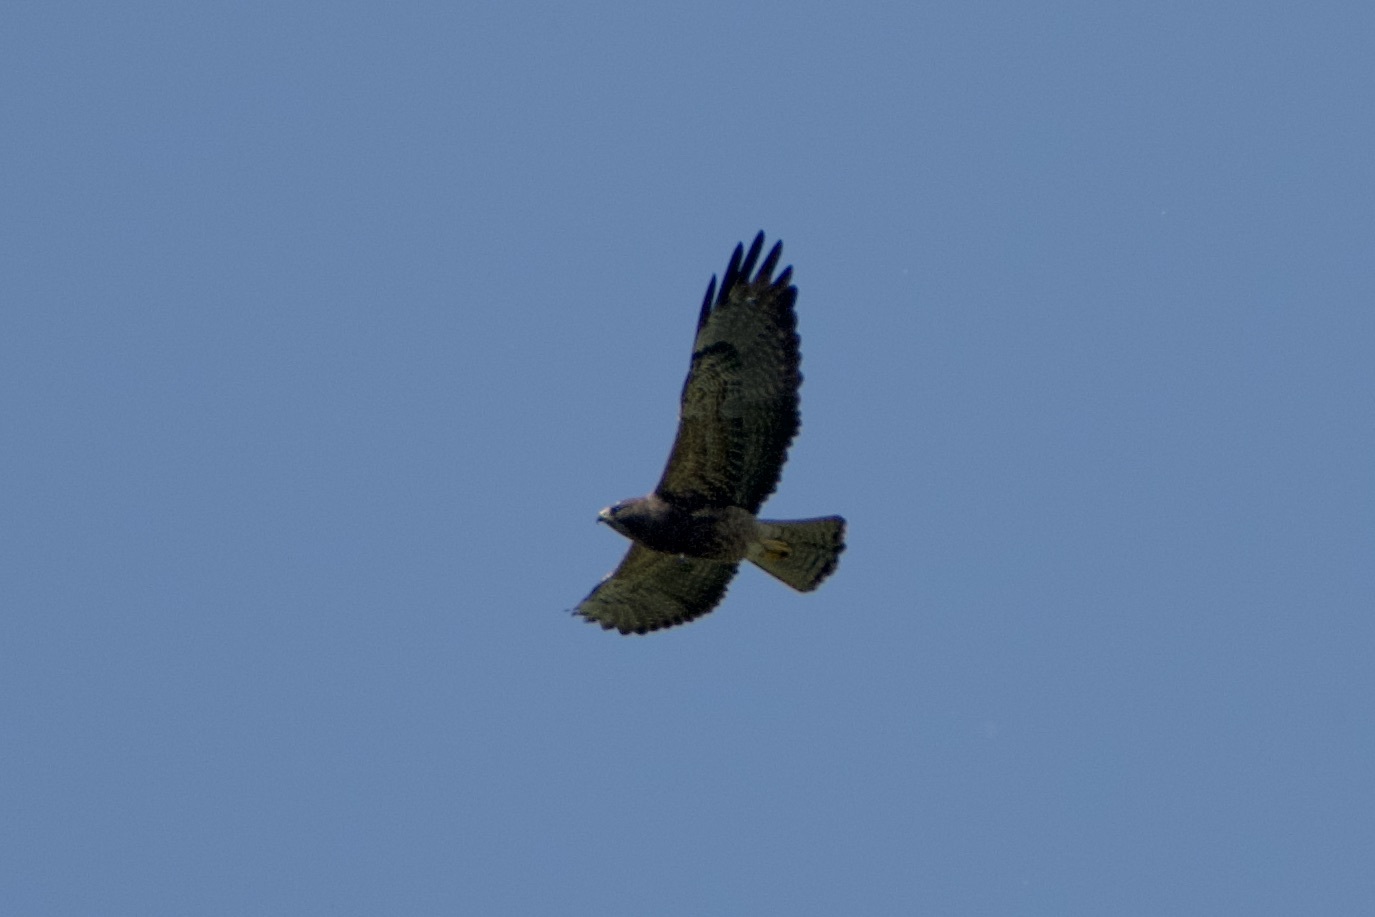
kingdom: Animalia
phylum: Chordata
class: Aves
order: Accipitriformes
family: Accipitridae
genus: Buteo
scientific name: Buteo swainsoni
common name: Swainson's hawk
